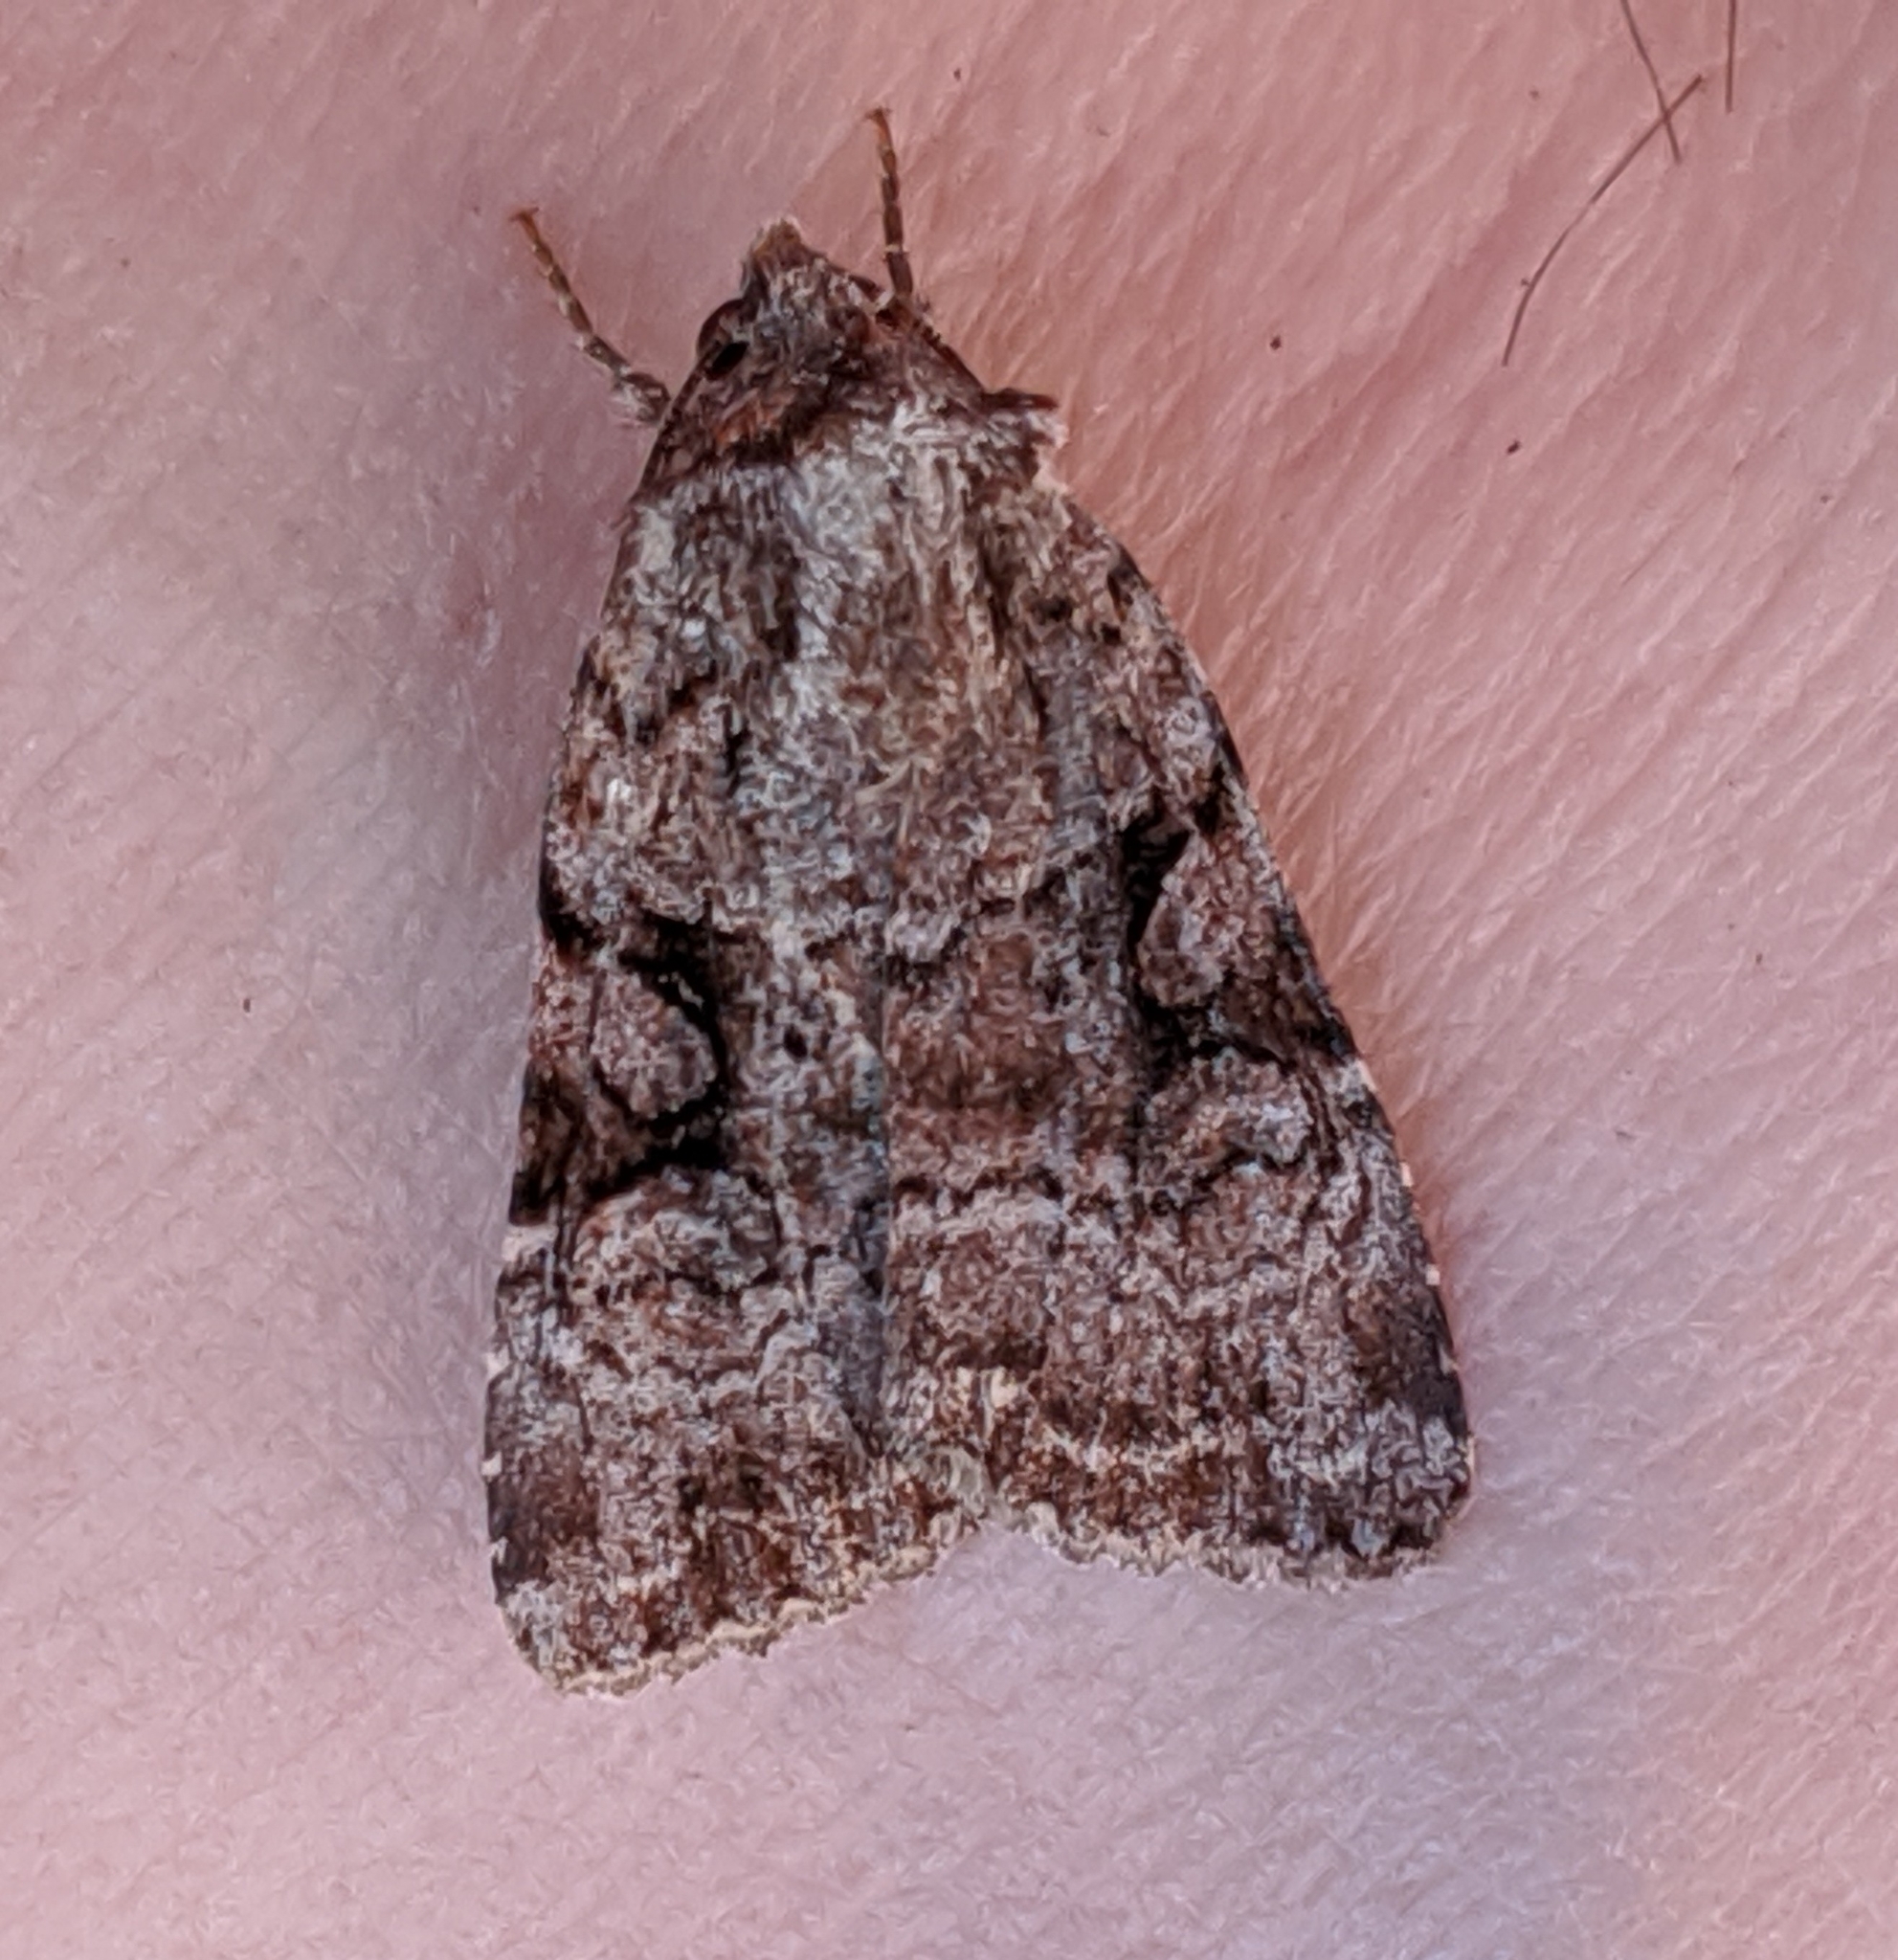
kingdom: Animalia
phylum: Arthropoda
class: Insecta
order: Lepidoptera
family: Noctuidae
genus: Xestia
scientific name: Xestia mustelina
